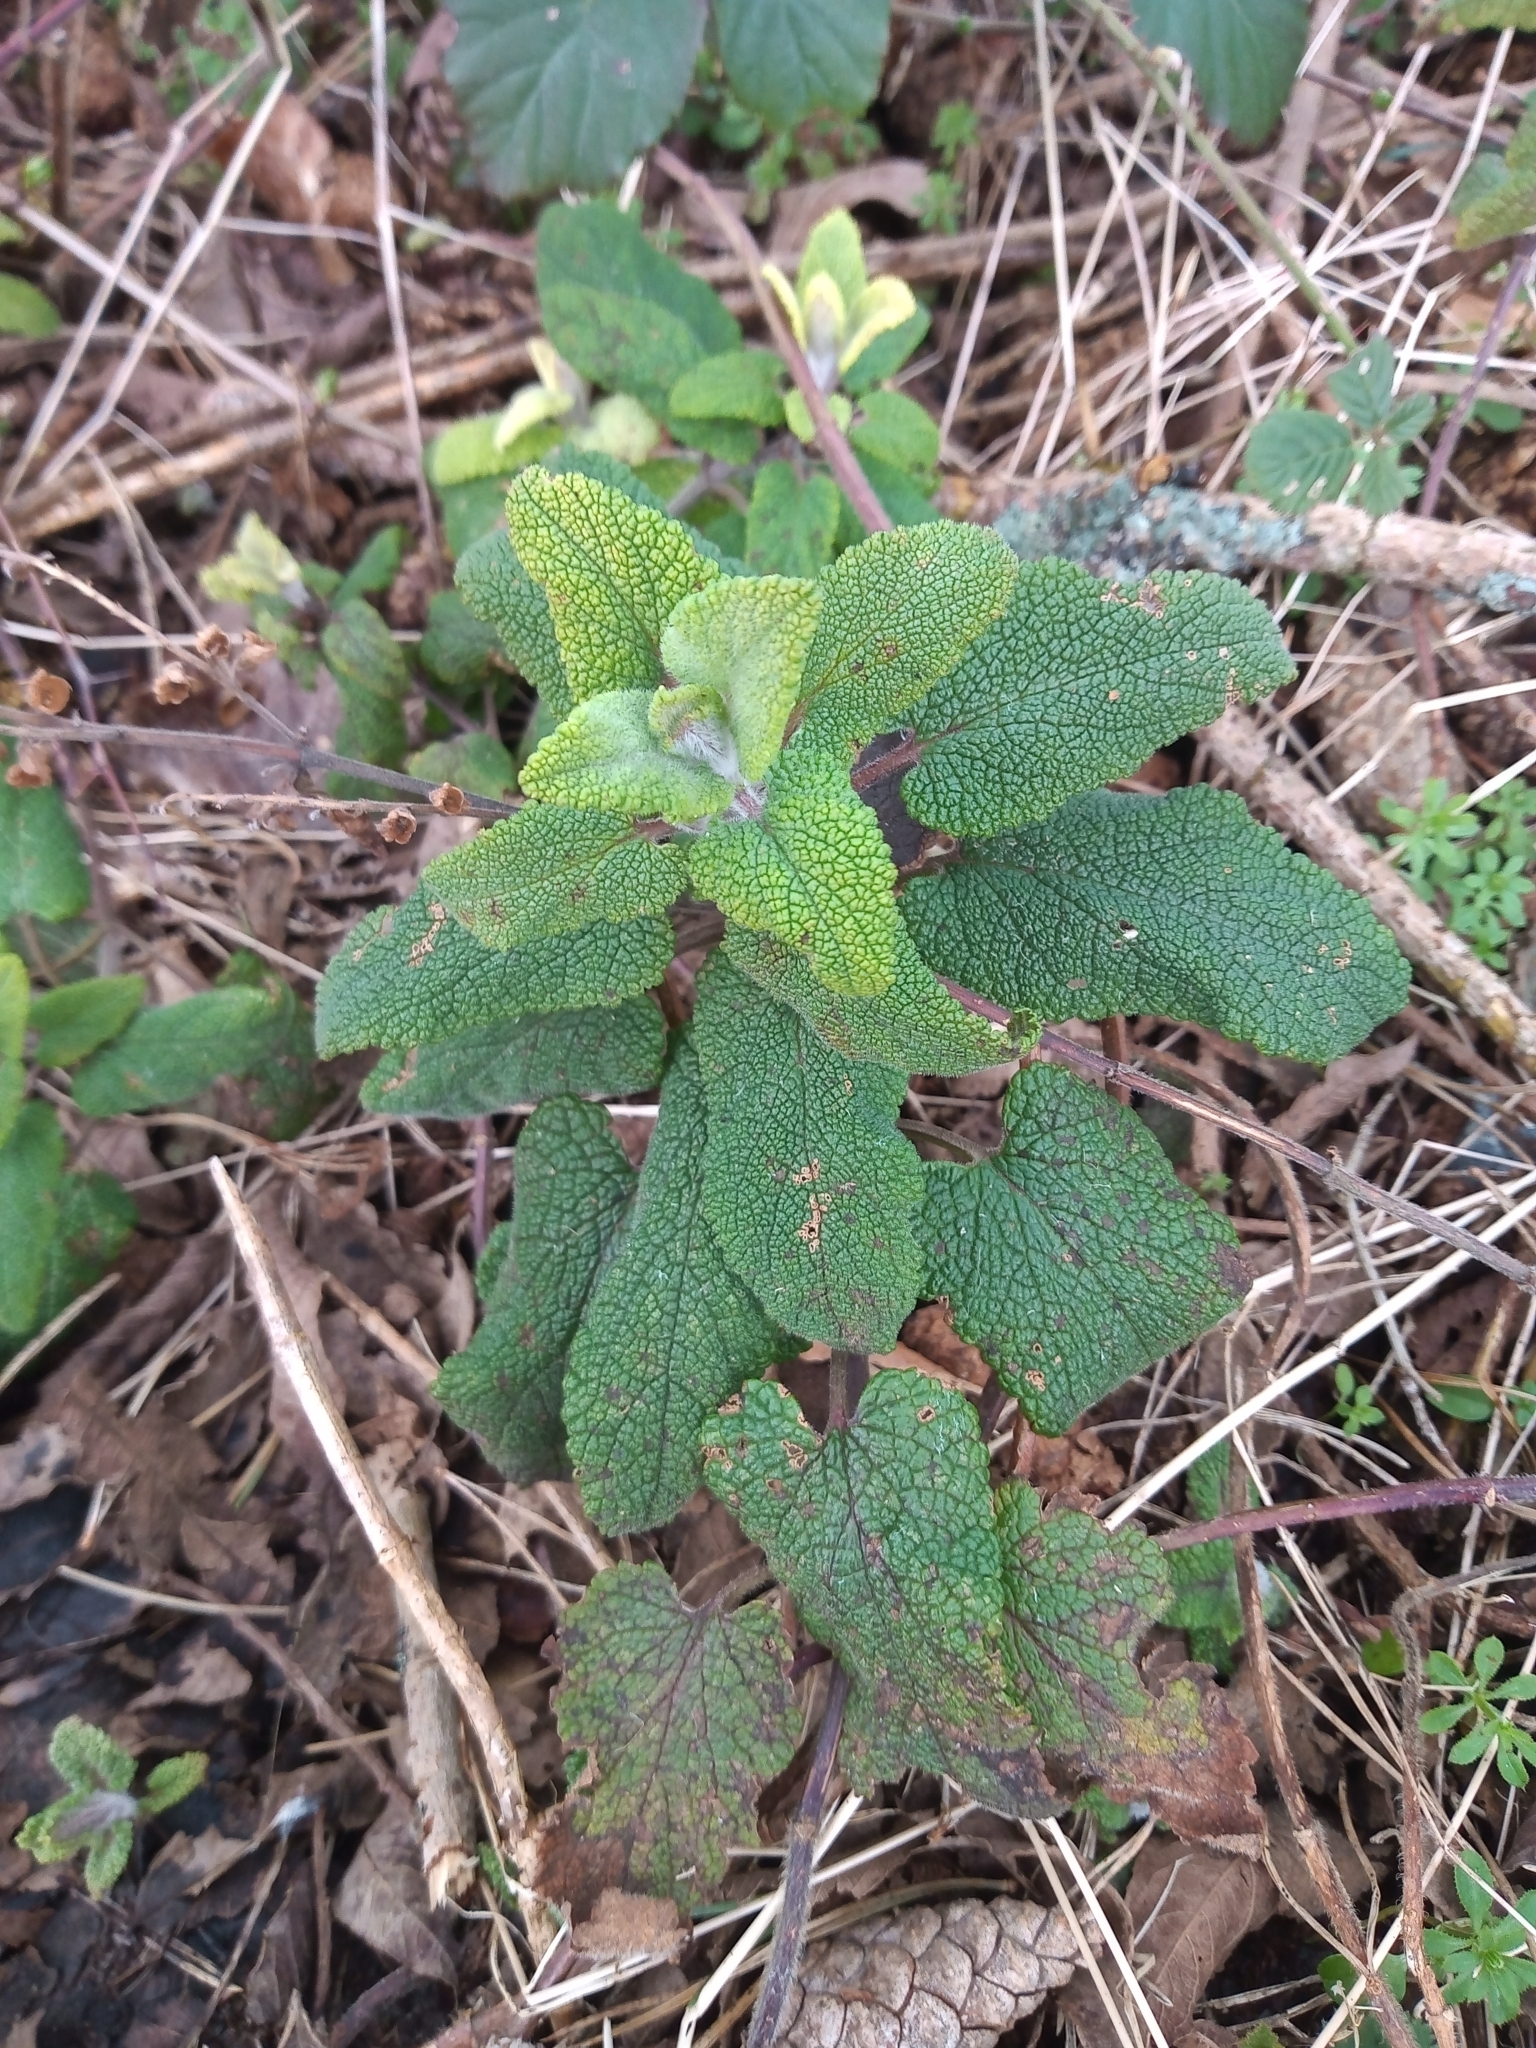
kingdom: Plantae
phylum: Tracheophyta
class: Magnoliopsida
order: Lamiales
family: Lamiaceae
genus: Teucrium
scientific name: Teucrium scorodonia
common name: Woodland germander
